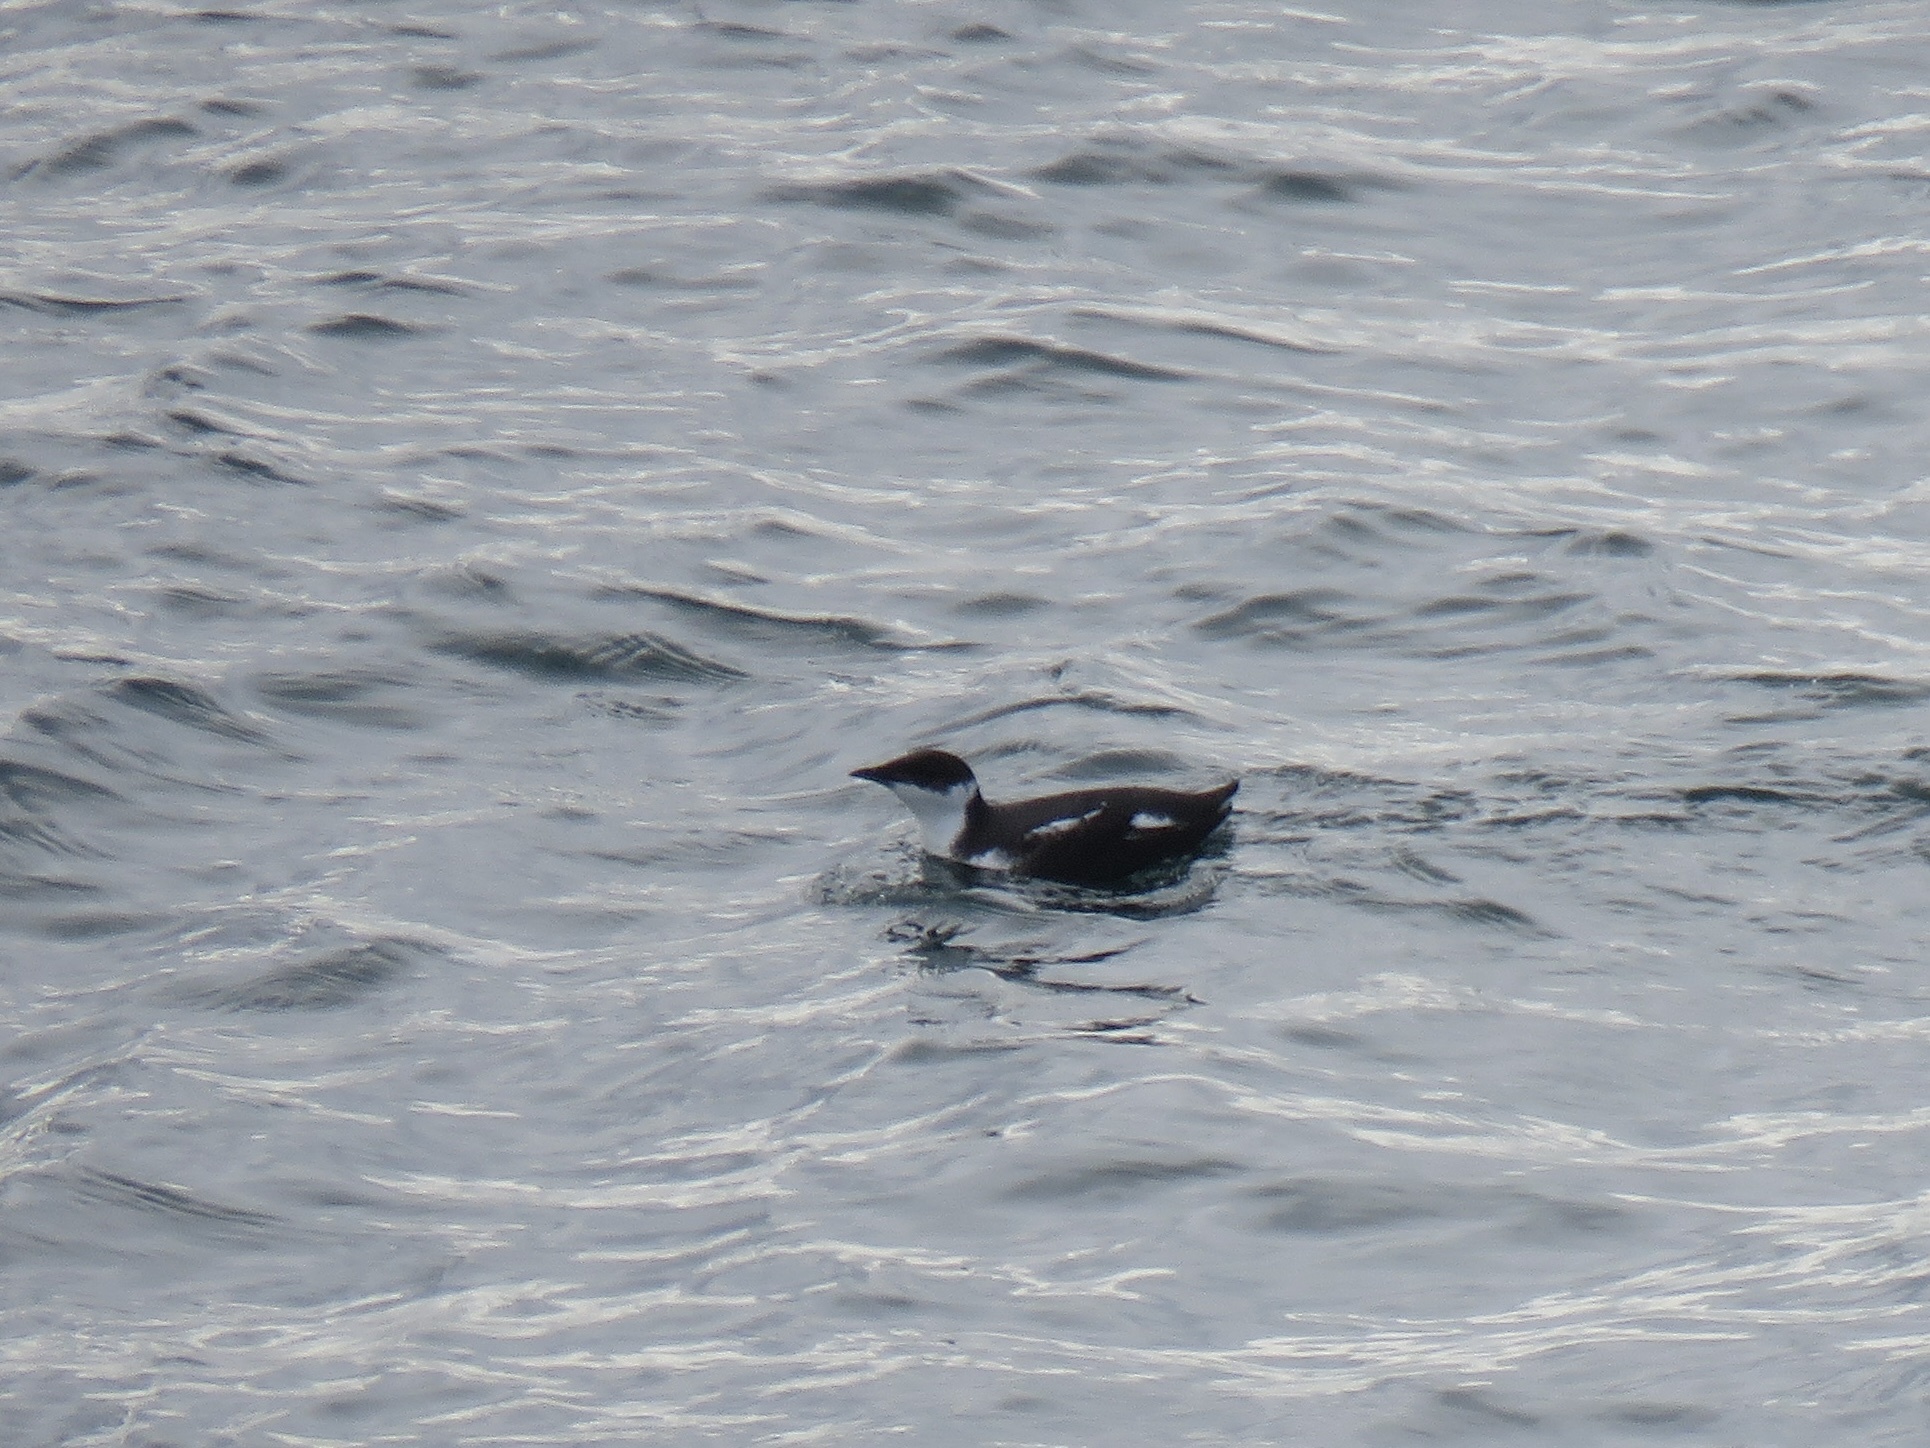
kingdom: Animalia
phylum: Chordata
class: Aves
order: Charadriiformes
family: Alcidae
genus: Brachyramphus
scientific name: Brachyramphus marmoratus
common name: Marbled murrelet
